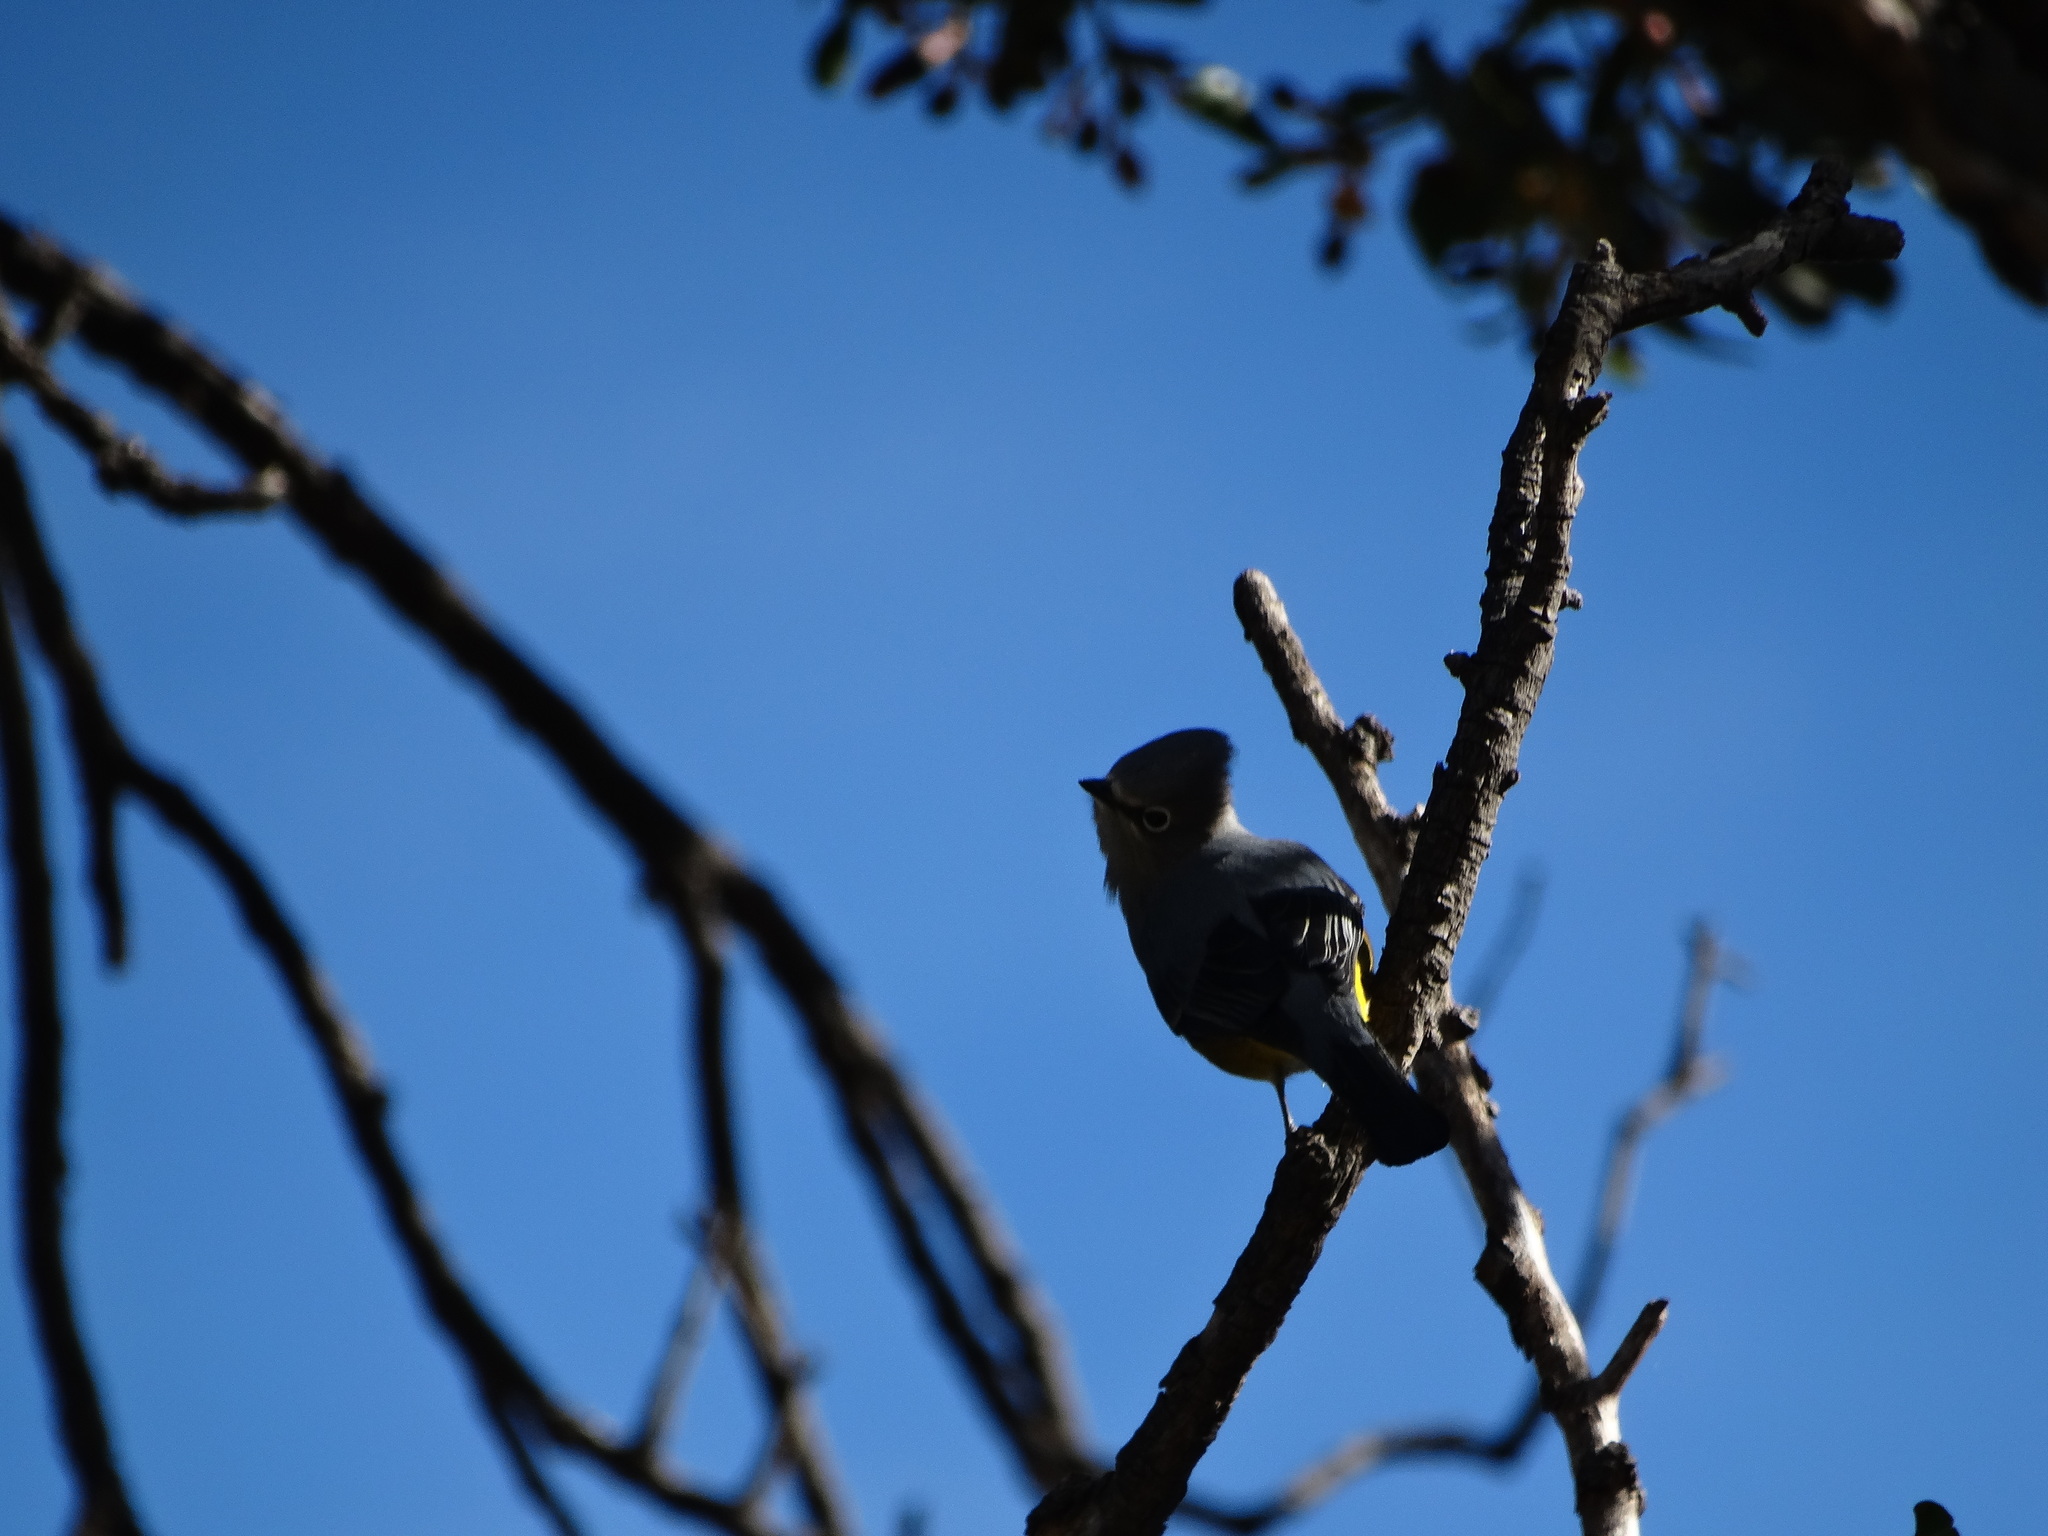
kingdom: Animalia
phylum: Chordata
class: Aves
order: Passeriformes
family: Ptilogonatidae
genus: Ptilogonys
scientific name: Ptilogonys cinereus
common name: Gray silky-flycatcher
